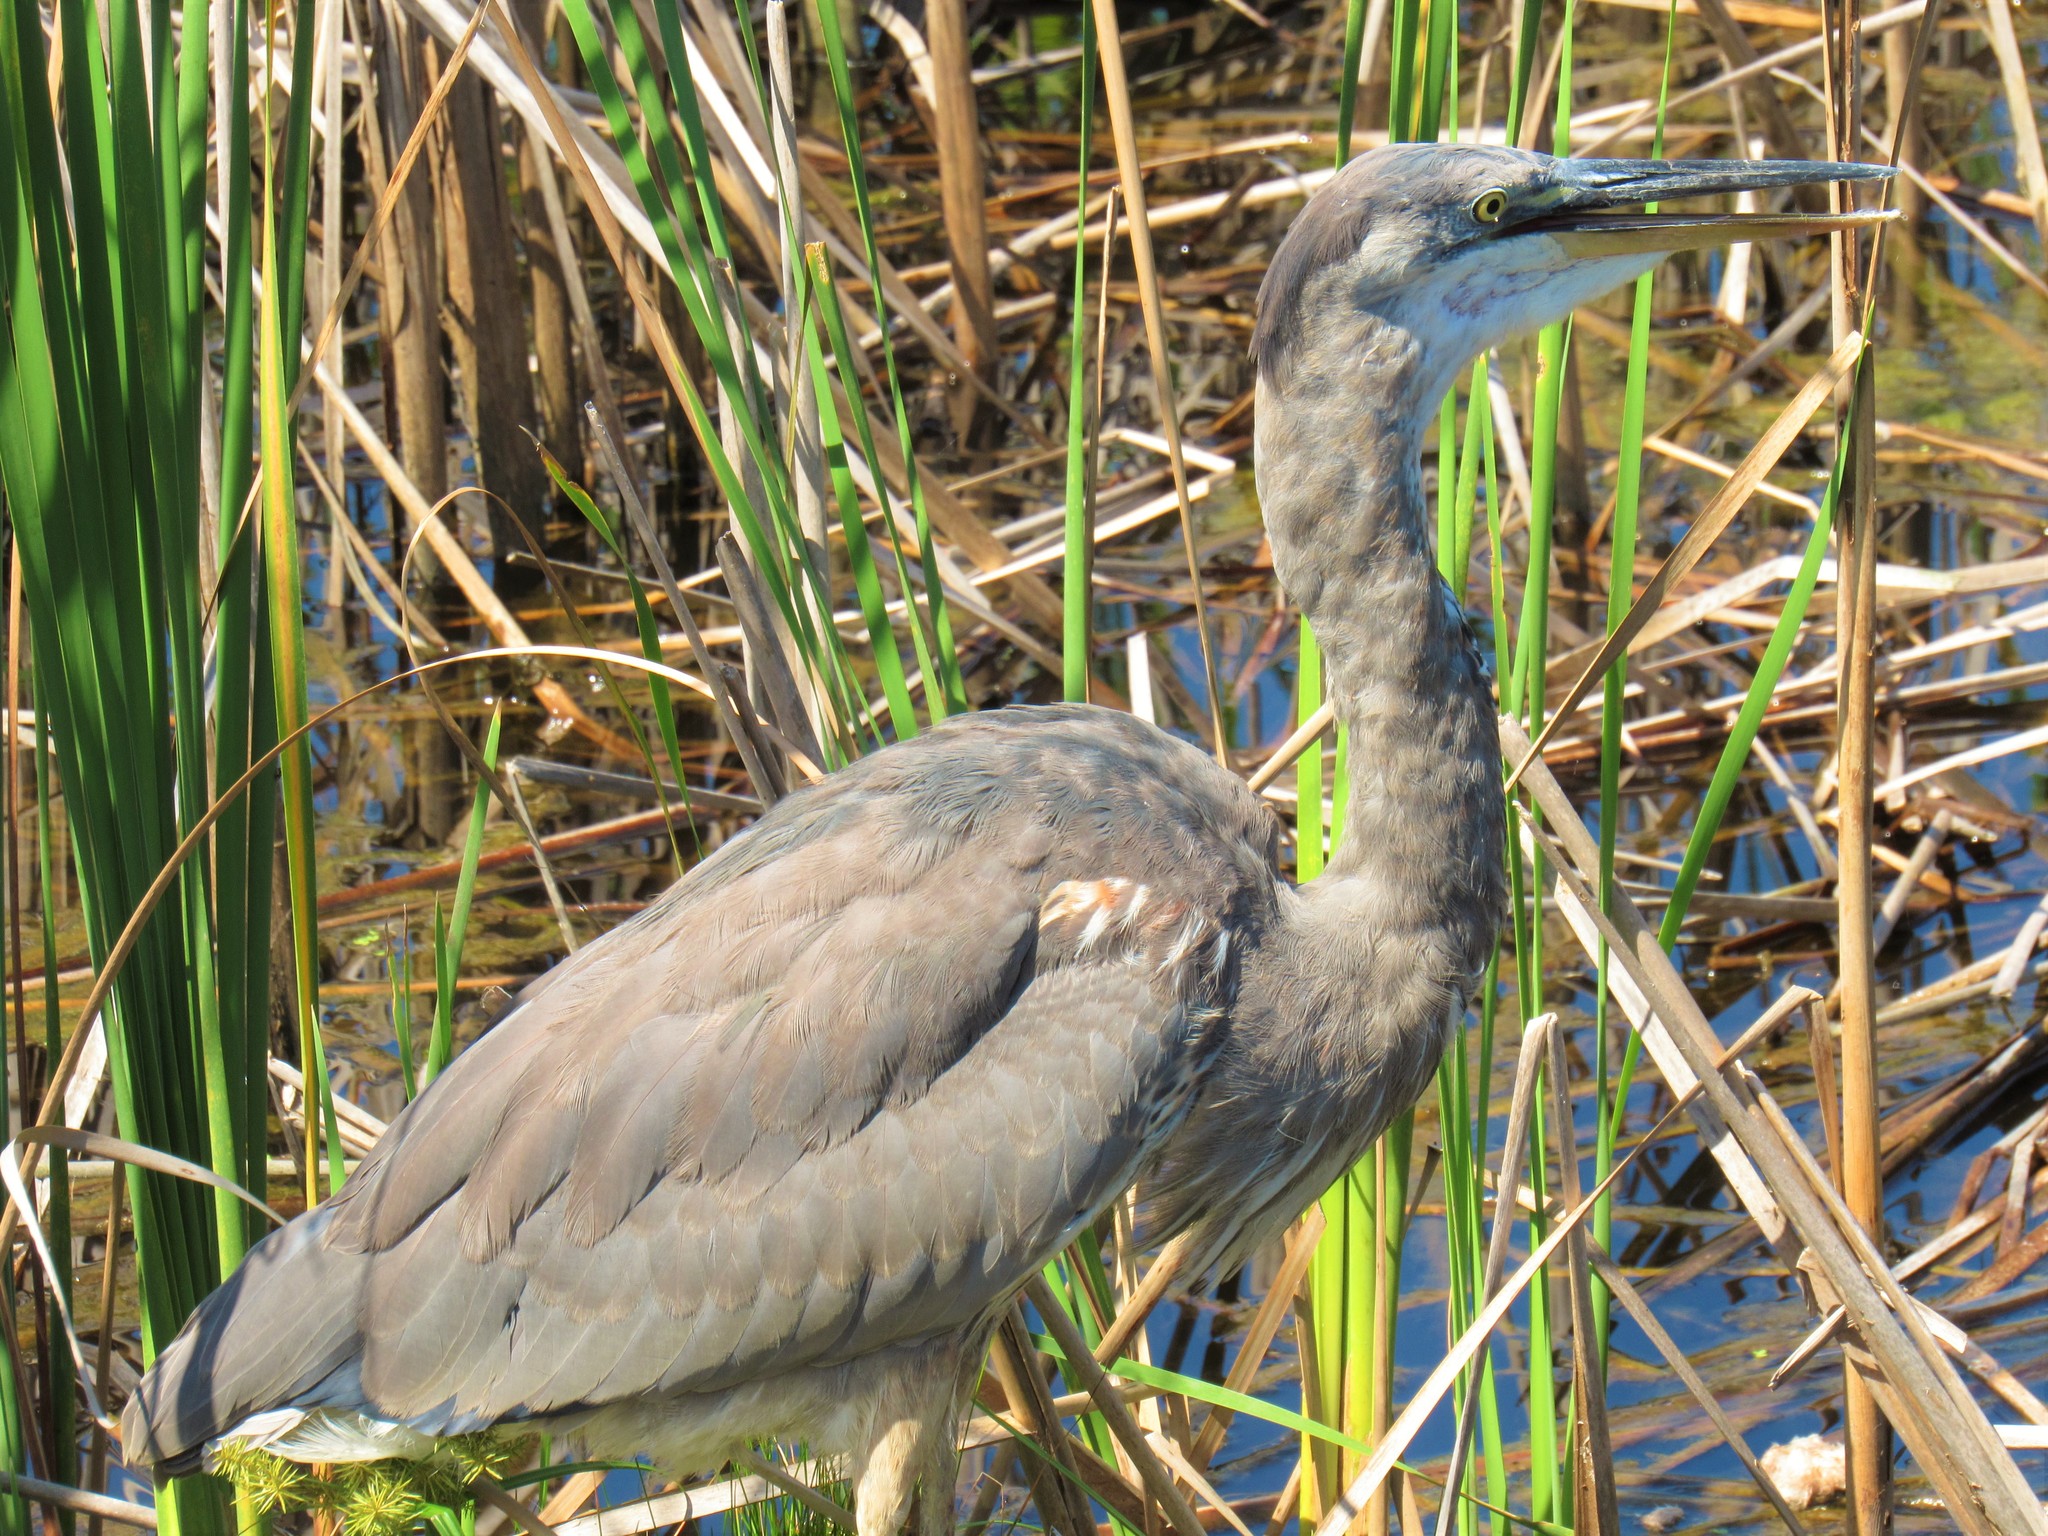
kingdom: Animalia
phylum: Chordata
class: Aves
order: Pelecaniformes
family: Ardeidae
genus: Ardea
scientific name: Ardea herodias
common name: Great blue heron
